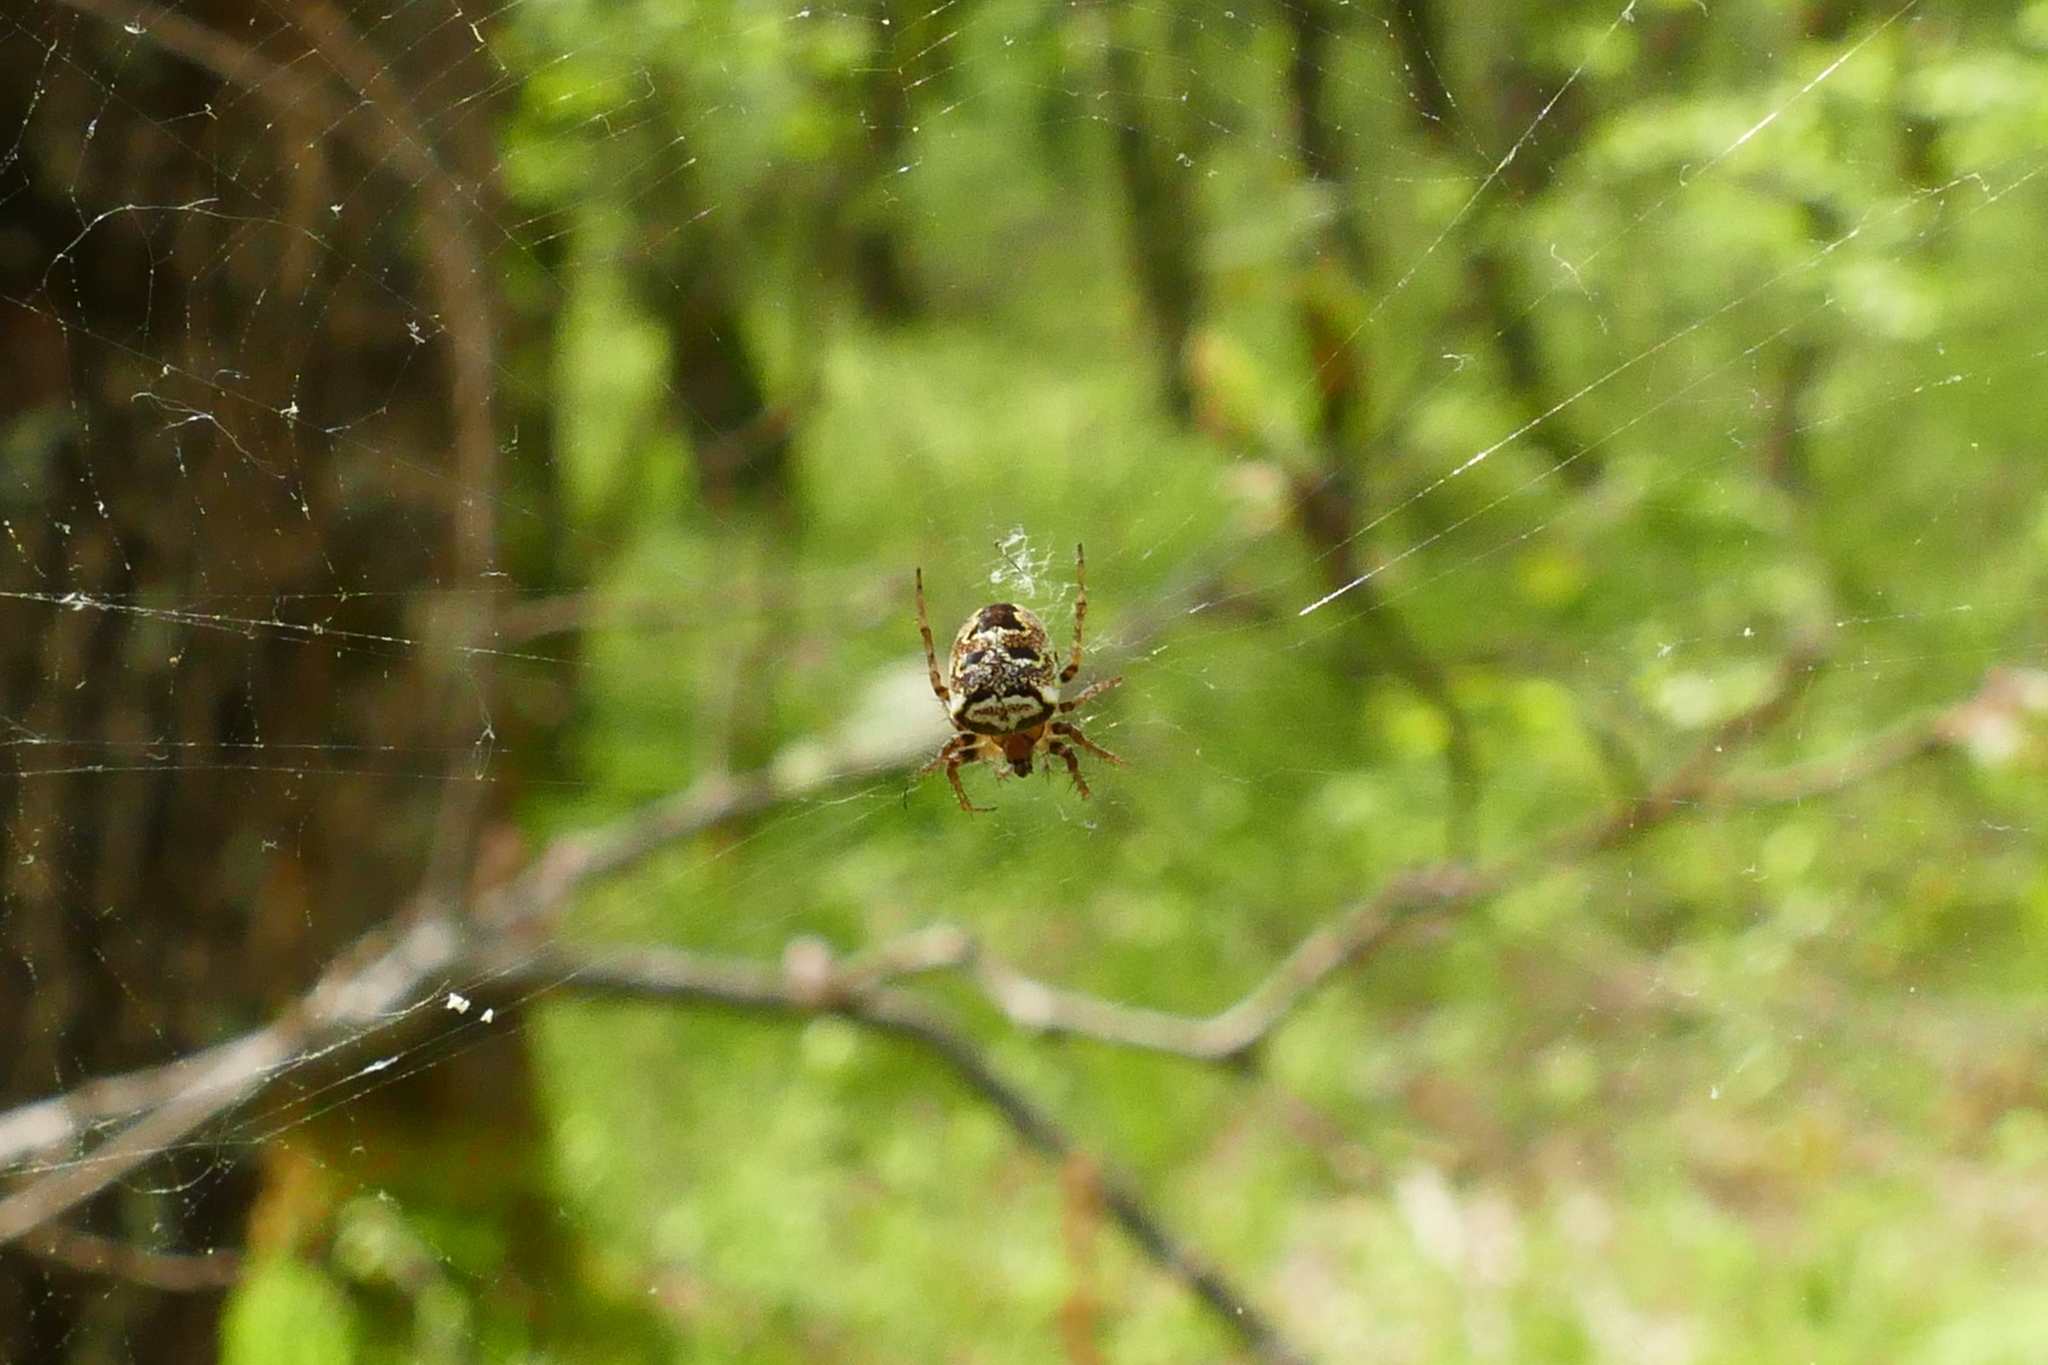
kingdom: Animalia
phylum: Arthropoda
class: Arachnida
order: Araneae
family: Araneidae
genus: Zilla
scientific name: Zilla diodia
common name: Zilla diodia
